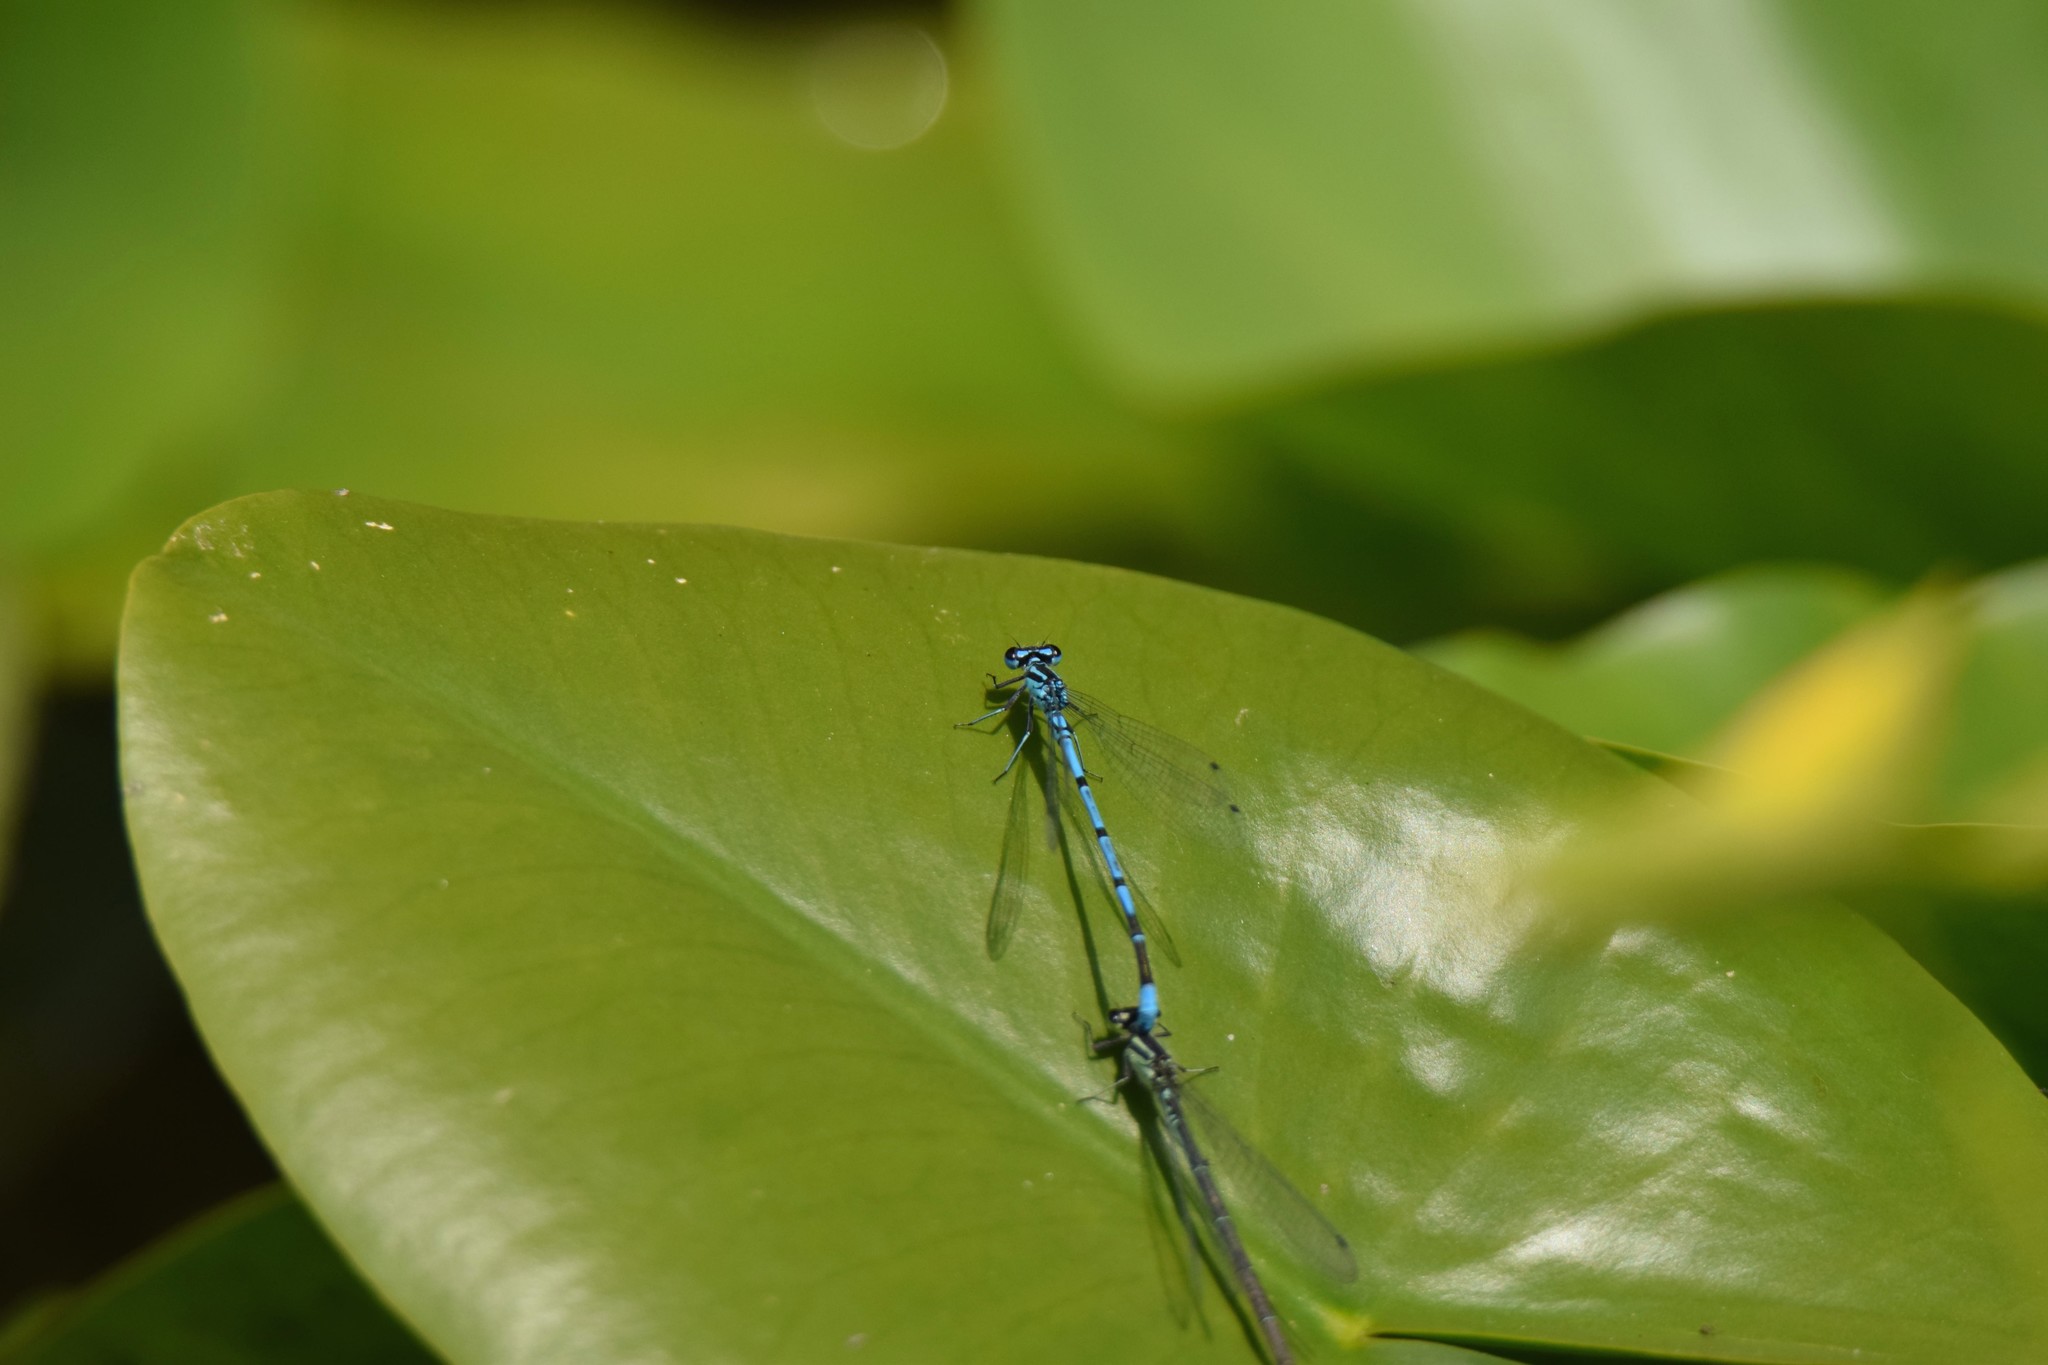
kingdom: Animalia
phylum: Arthropoda
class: Insecta
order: Odonata
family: Coenagrionidae
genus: Coenagrion
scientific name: Coenagrion puella
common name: Azure damselfly
